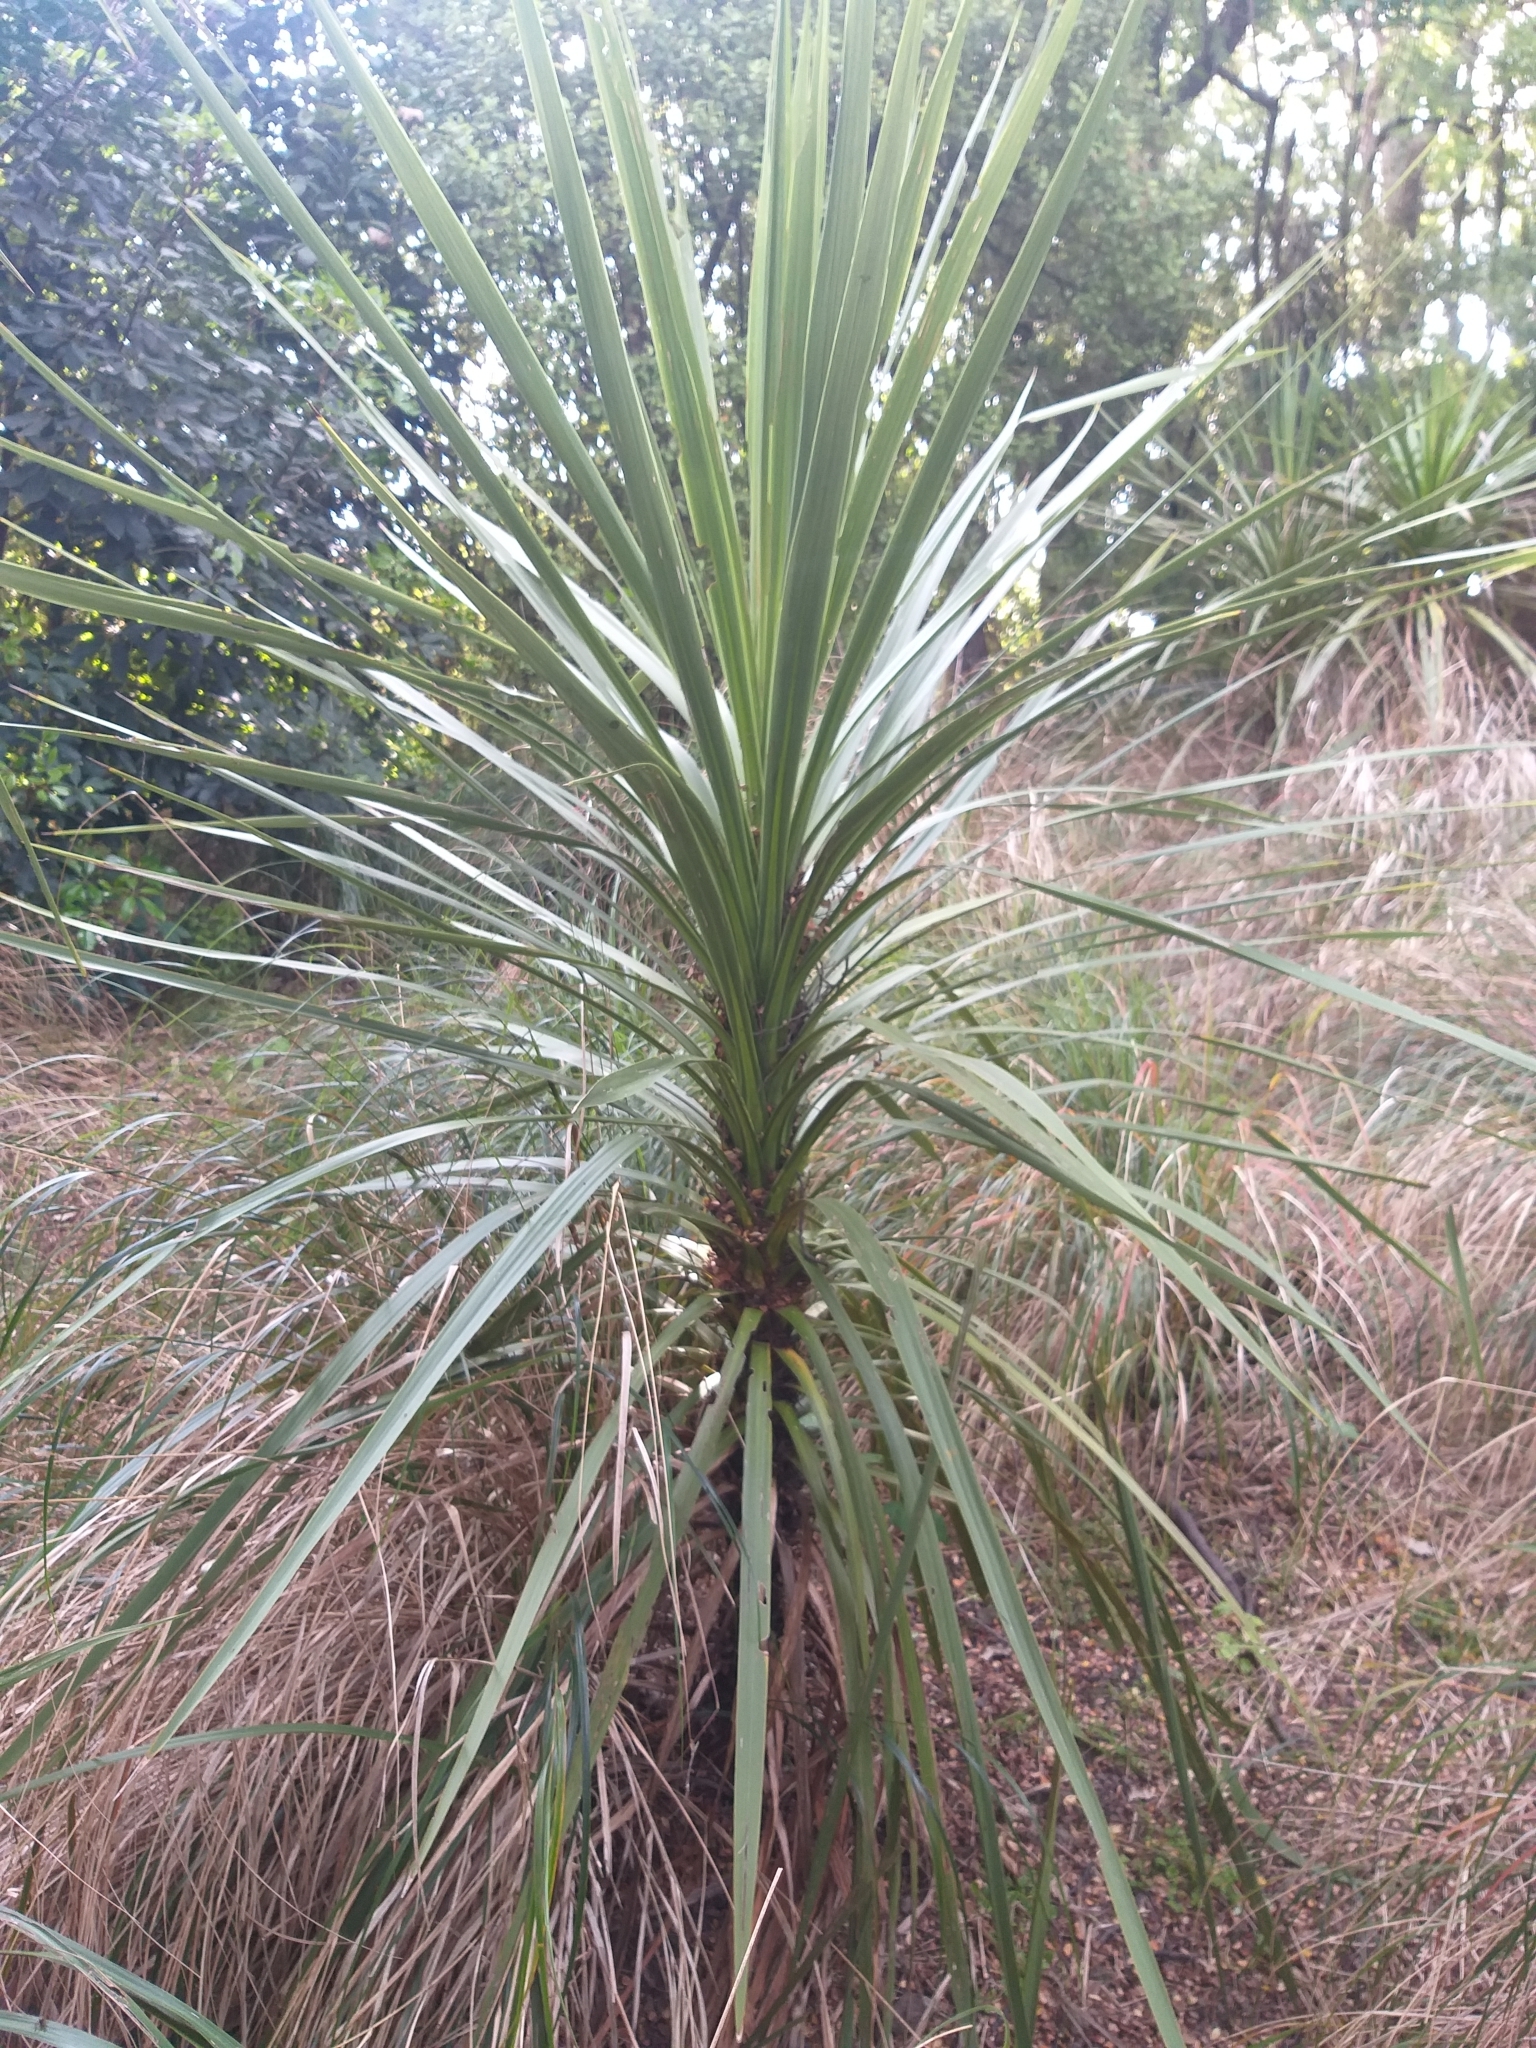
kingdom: Plantae
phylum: Tracheophyta
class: Liliopsida
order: Asparagales
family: Asparagaceae
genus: Cordyline
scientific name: Cordyline australis
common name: Cabbage-palm
